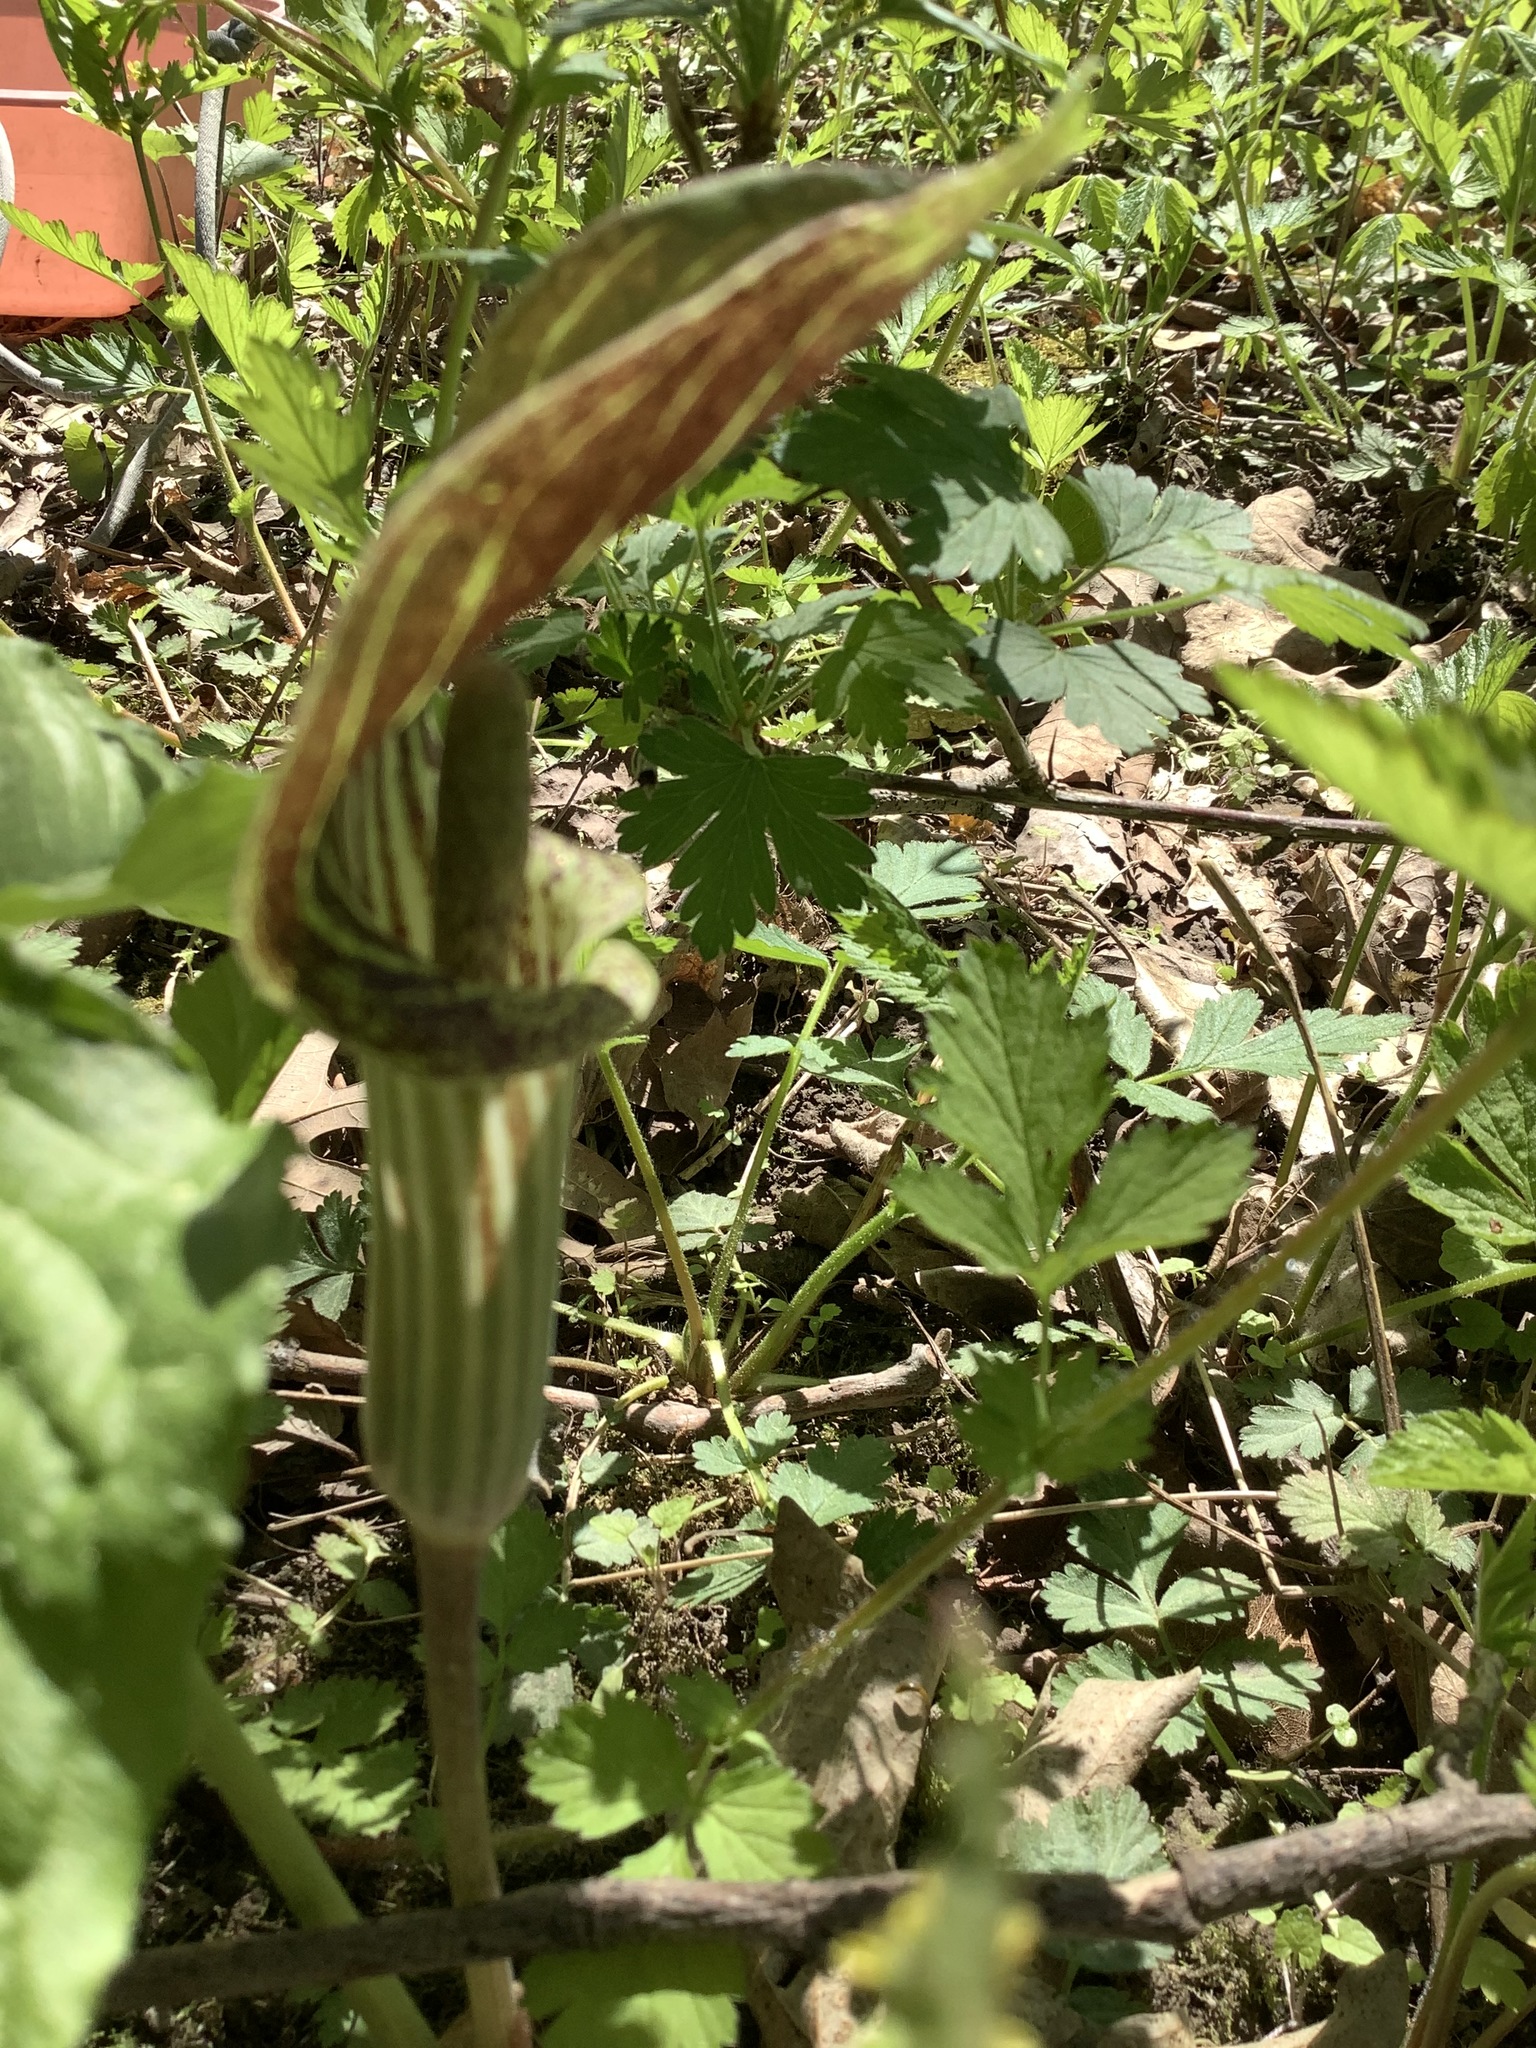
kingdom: Plantae
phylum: Tracheophyta
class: Liliopsida
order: Alismatales
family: Araceae
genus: Arisaema
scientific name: Arisaema triphyllum
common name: Jack-in-the-pulpit
